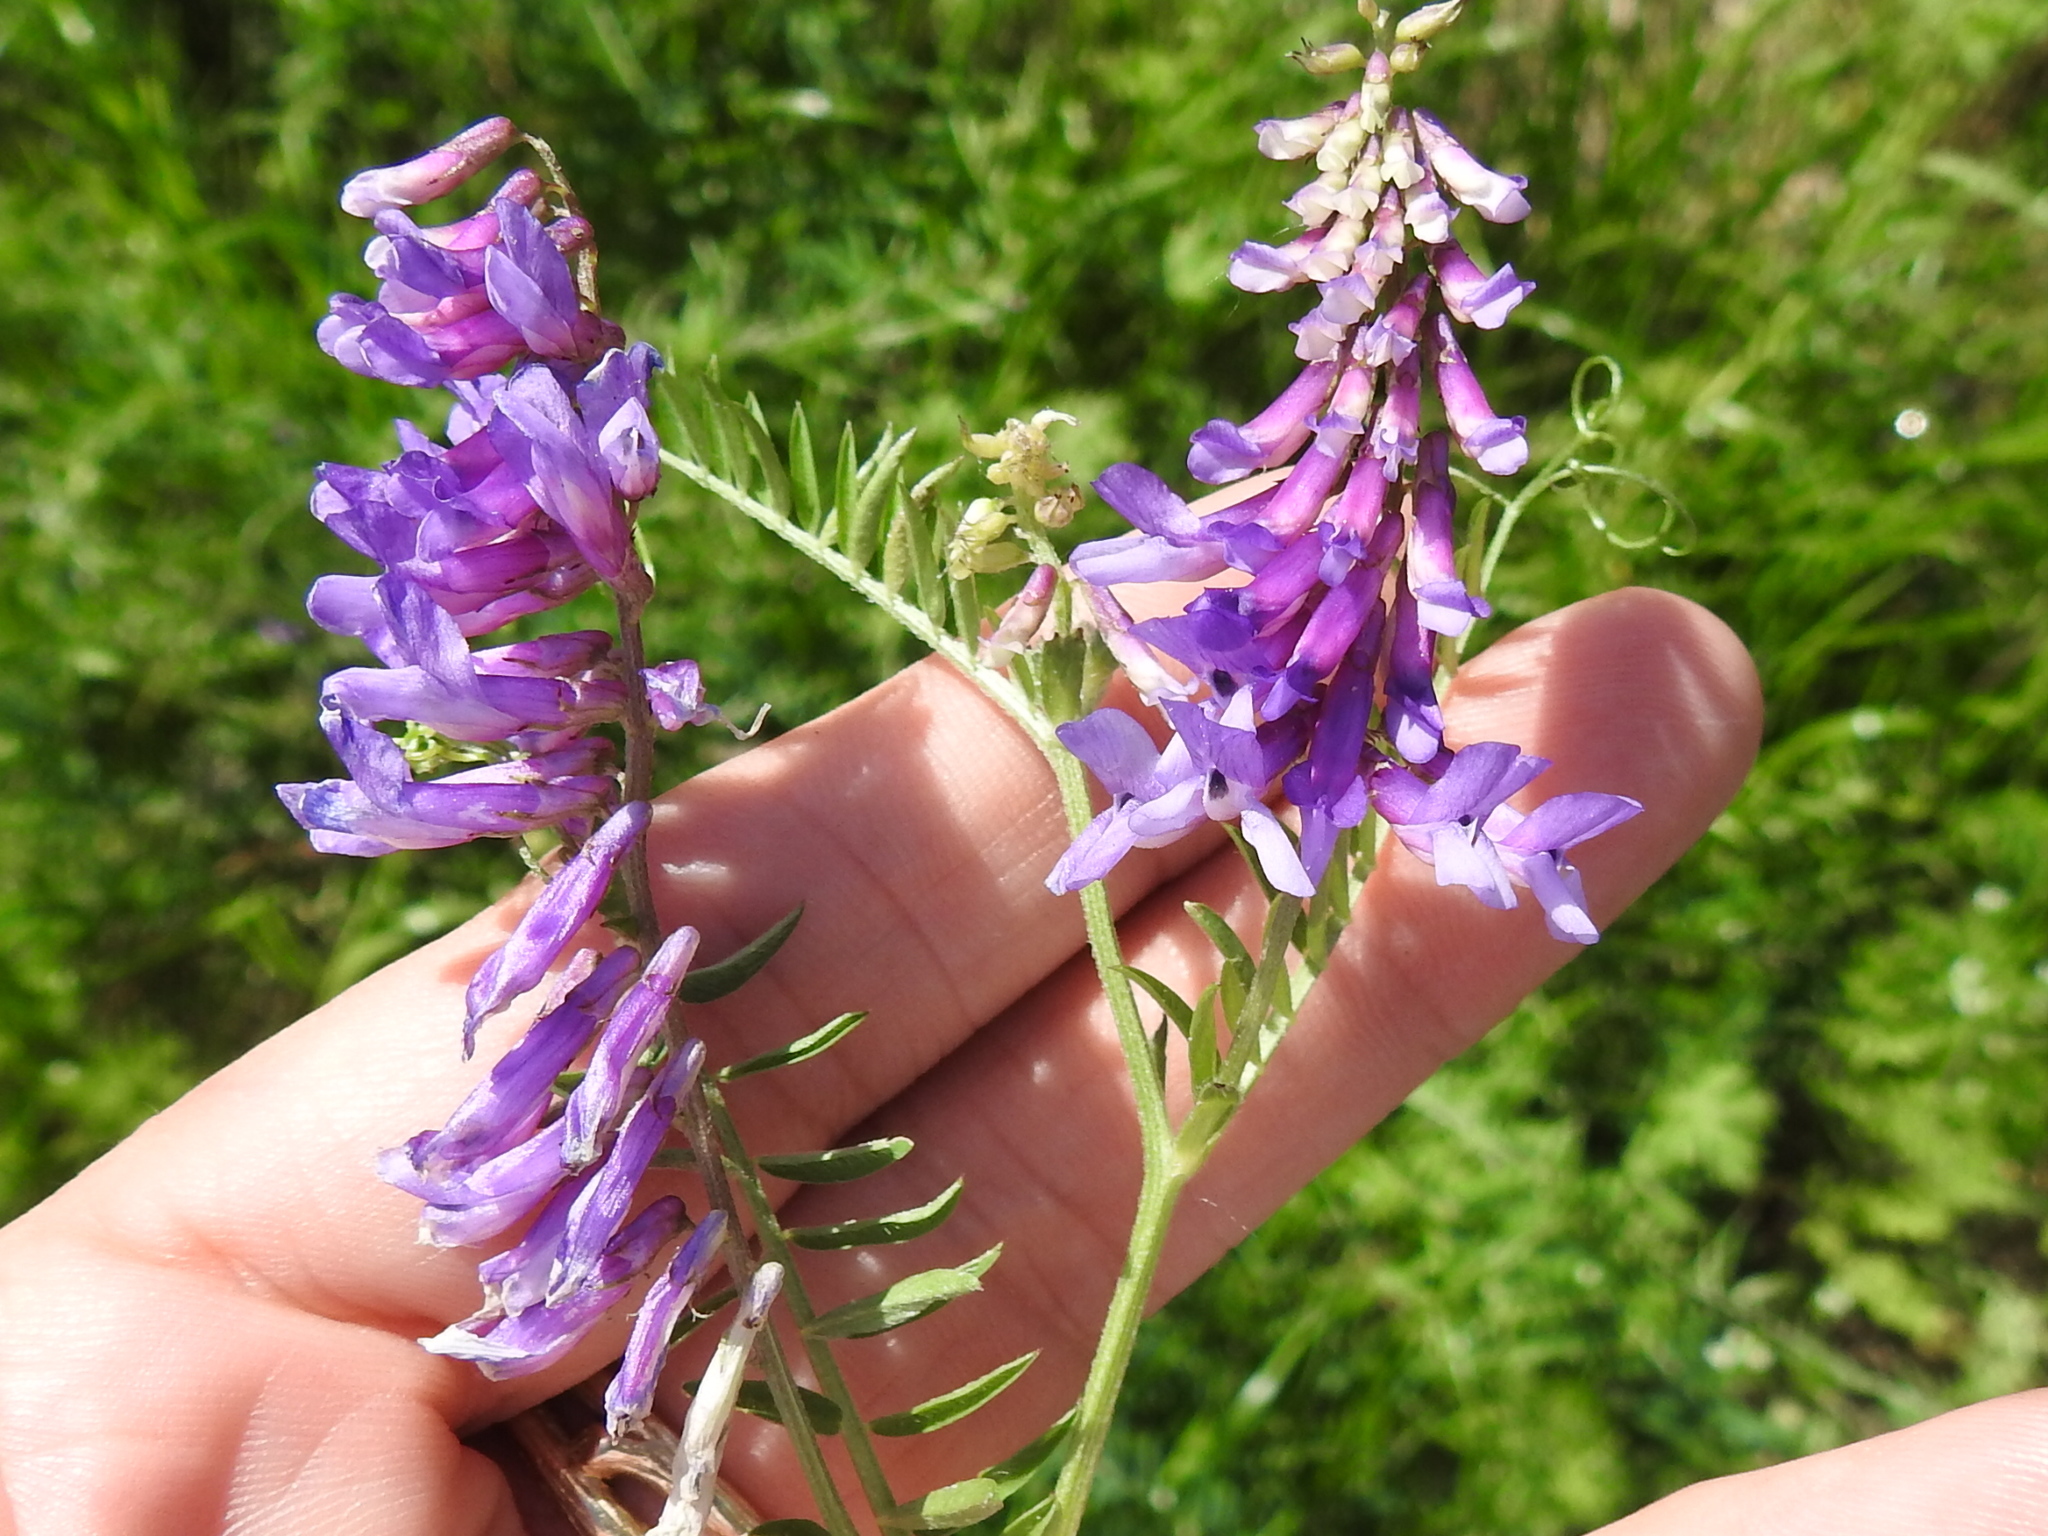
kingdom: Plantae
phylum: Tracheophyta
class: Magnoliopsida
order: Fabales
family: Fabaceae
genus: Vicia
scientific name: Vicia villosa
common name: Fodder vetch
